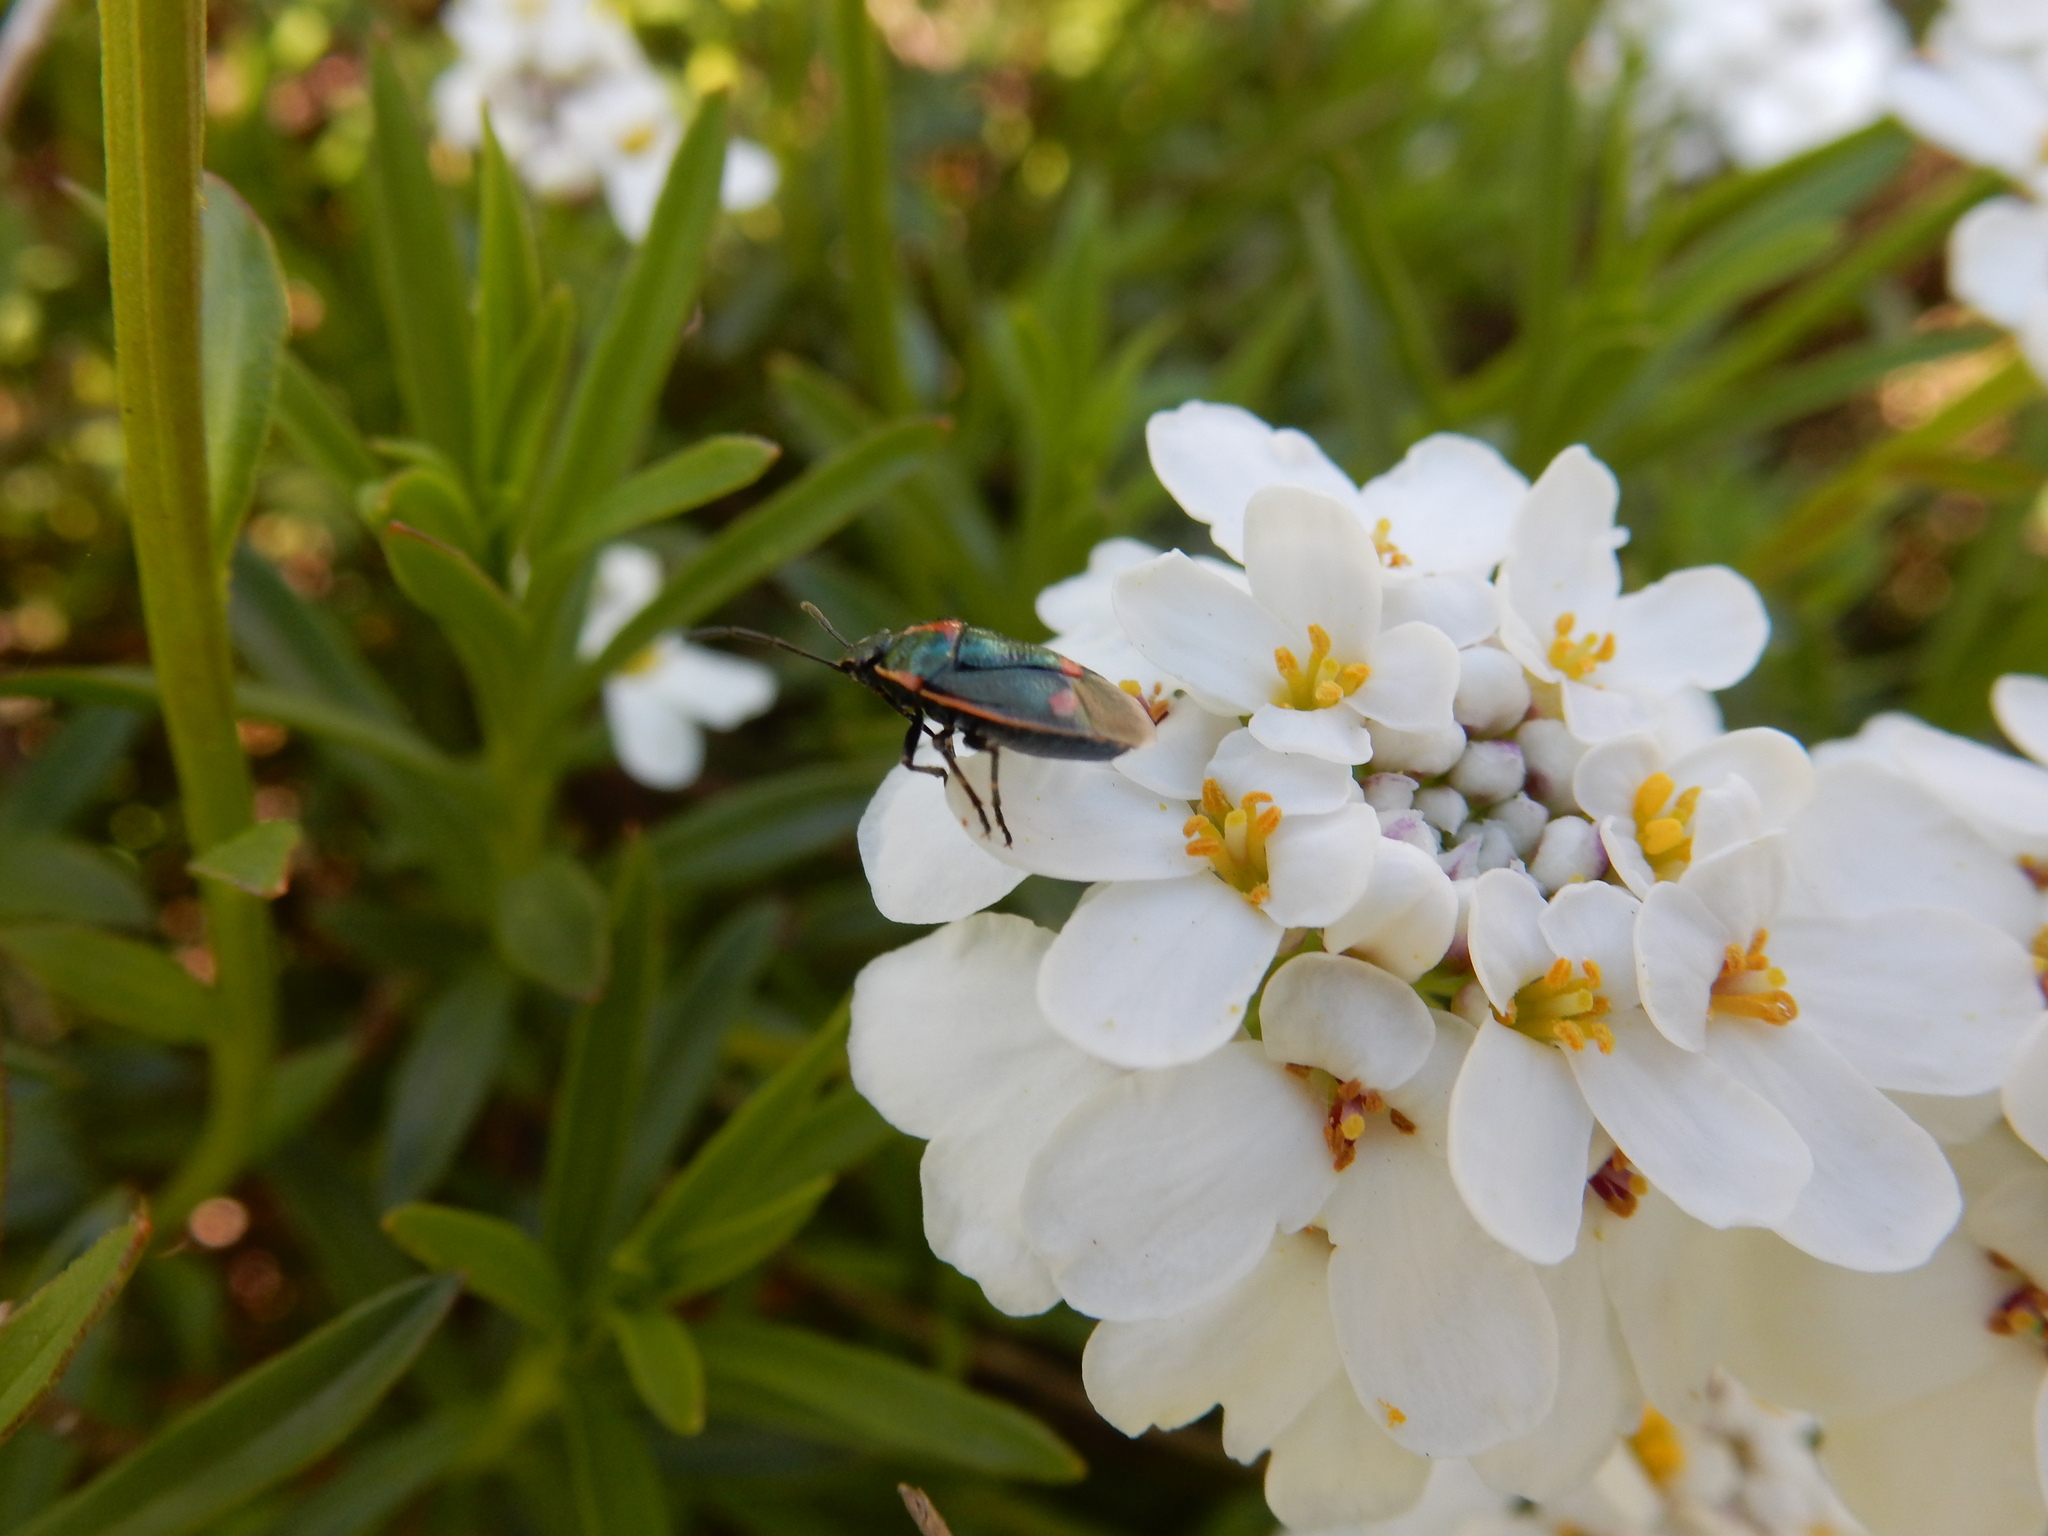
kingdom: Animalia
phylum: Arthropoda
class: Insecta
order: Hemiptera
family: Pentatomidae
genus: Eurydema
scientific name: Eurydema oleracea
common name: Cabbage bug
